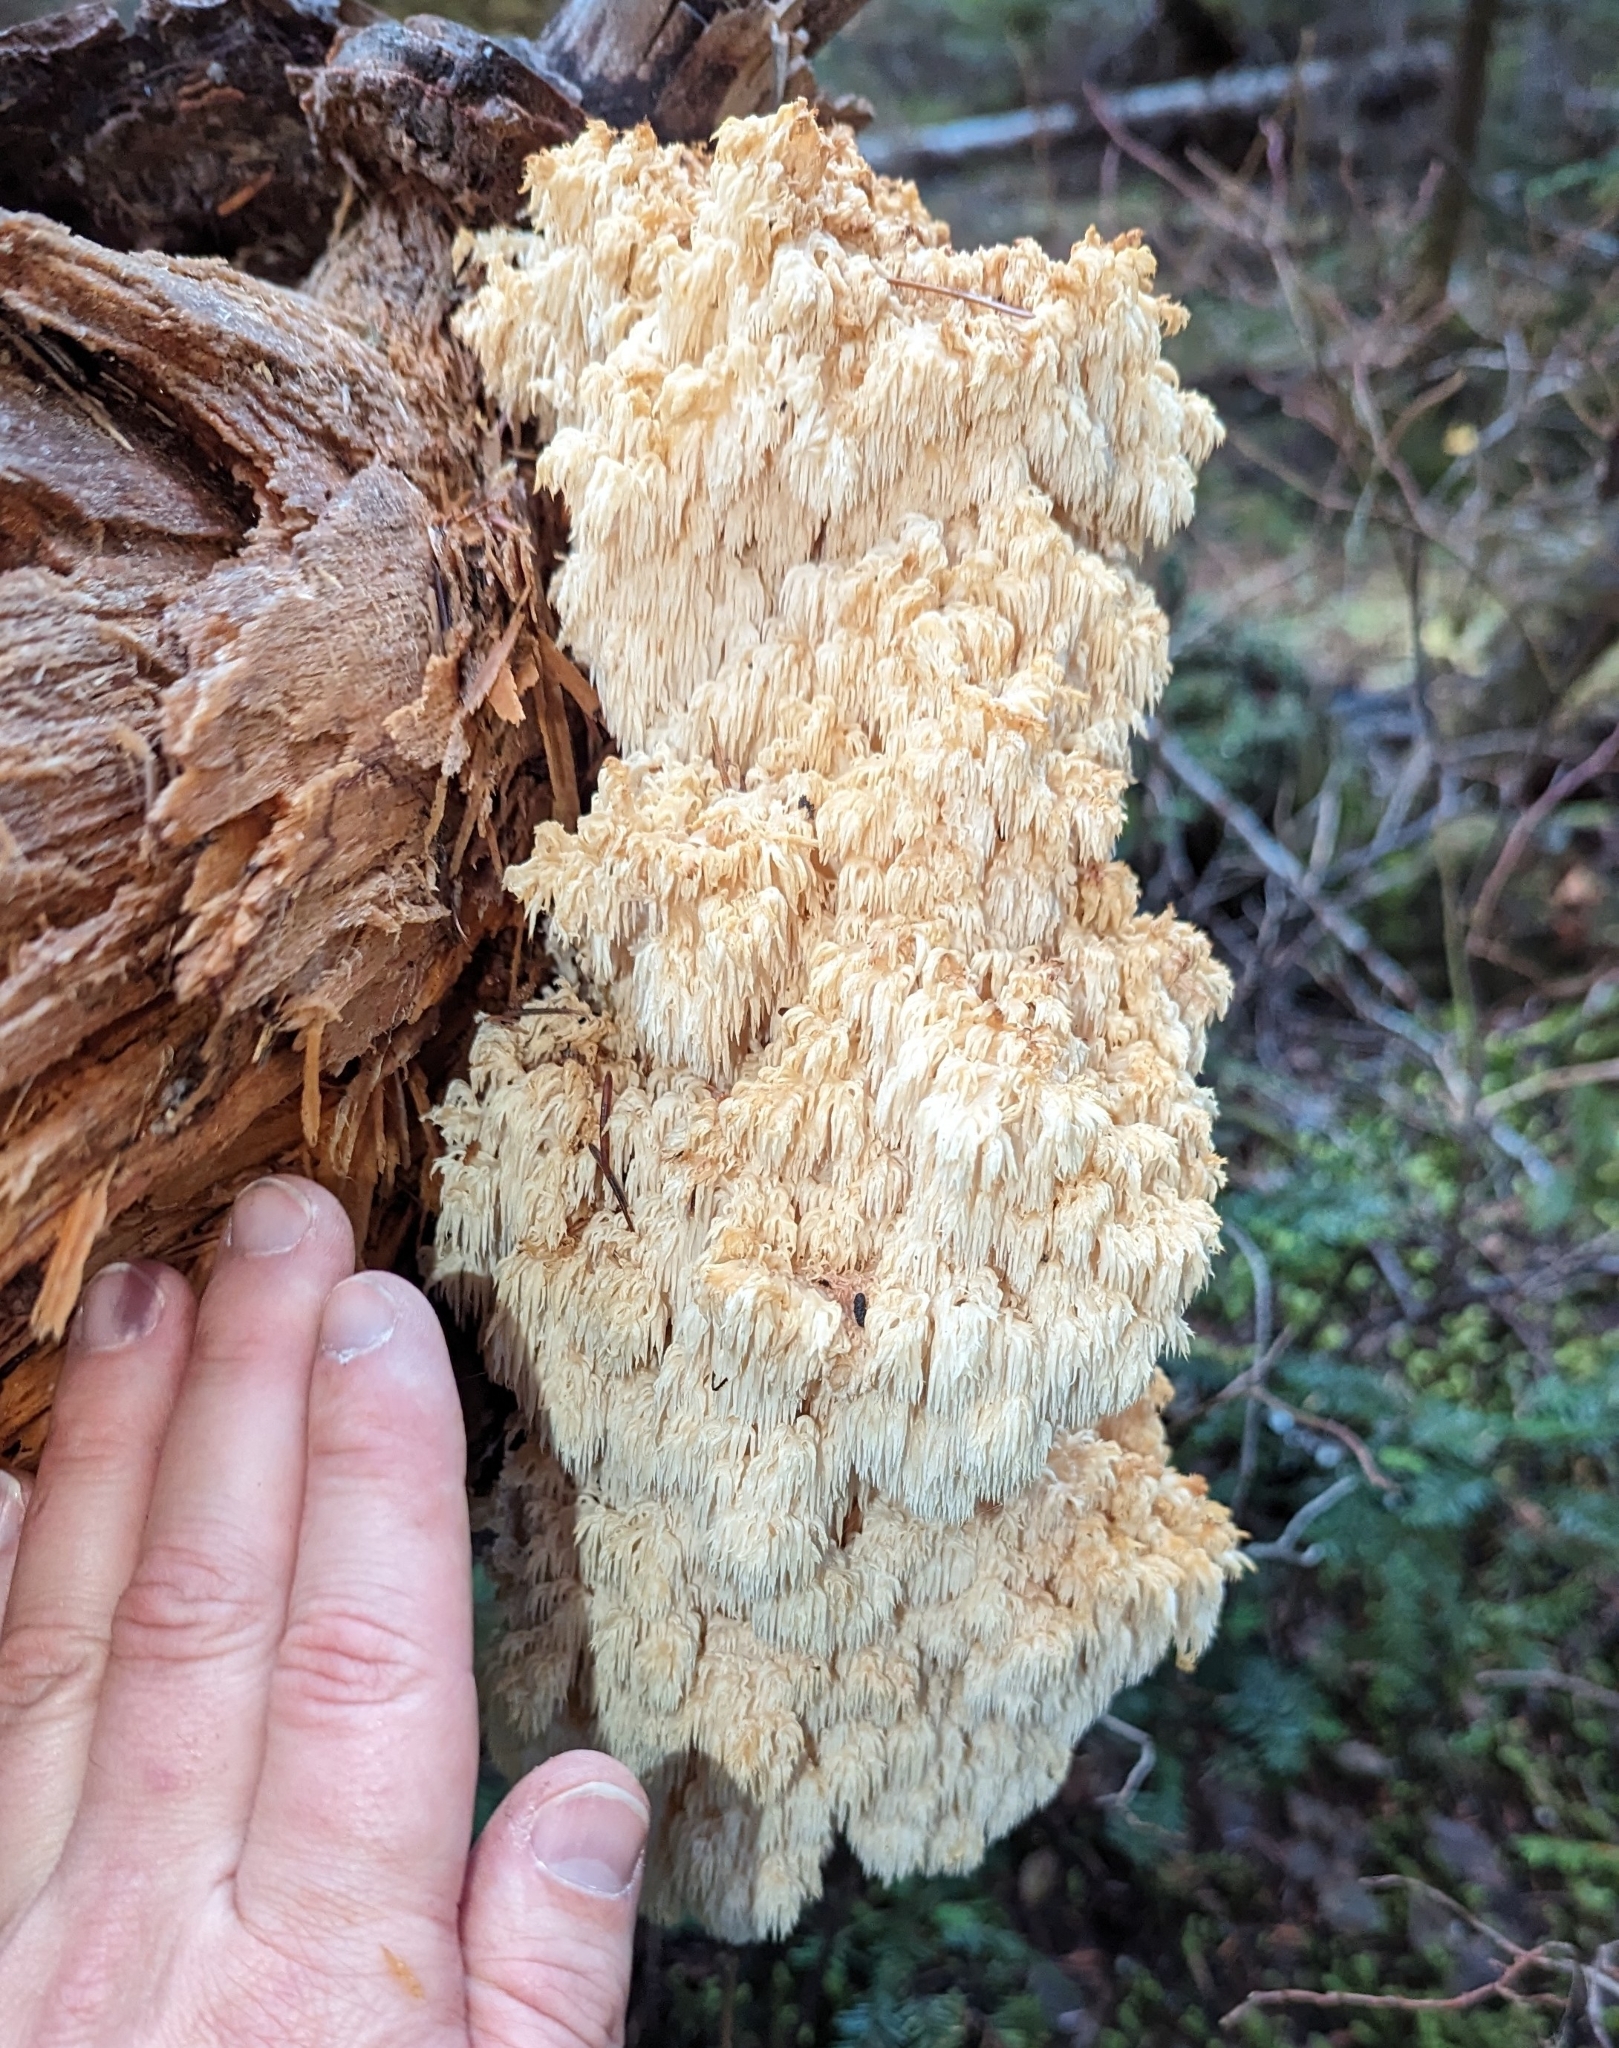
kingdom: Fungi
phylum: Basidiomycota
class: Agaricomycetes
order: Russulales
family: Hericiaceae
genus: Hericium
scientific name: Hericium abietis
